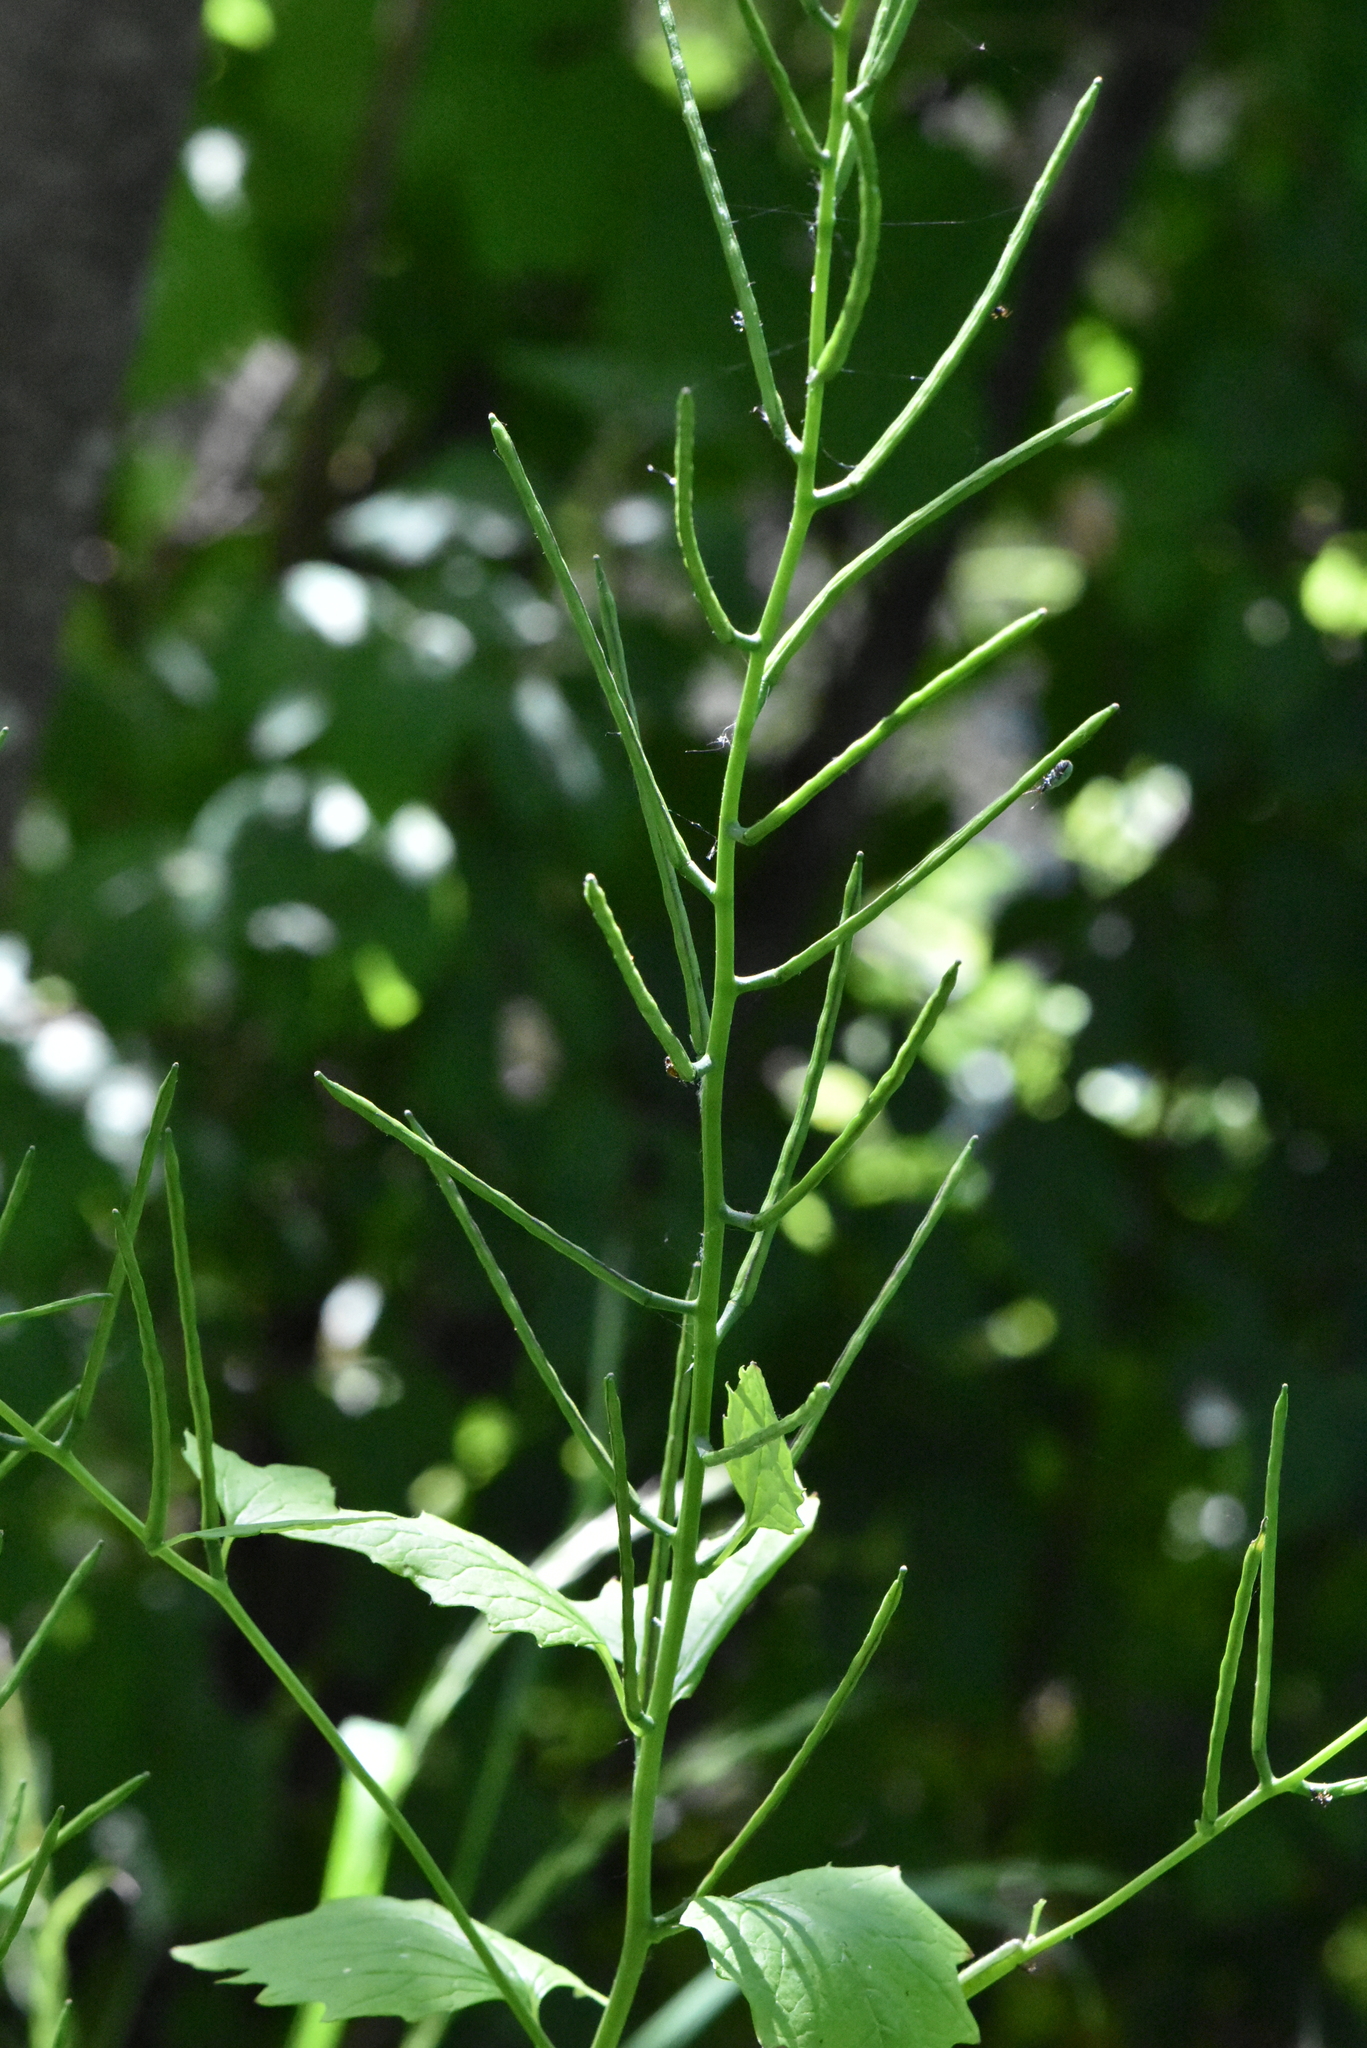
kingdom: Plantae
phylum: Tracheophyta
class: Magnoliopsida
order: Brassicales
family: Brassicaceae
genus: Alliaria
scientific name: Alliaria petiolata
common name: Garlic mustard
